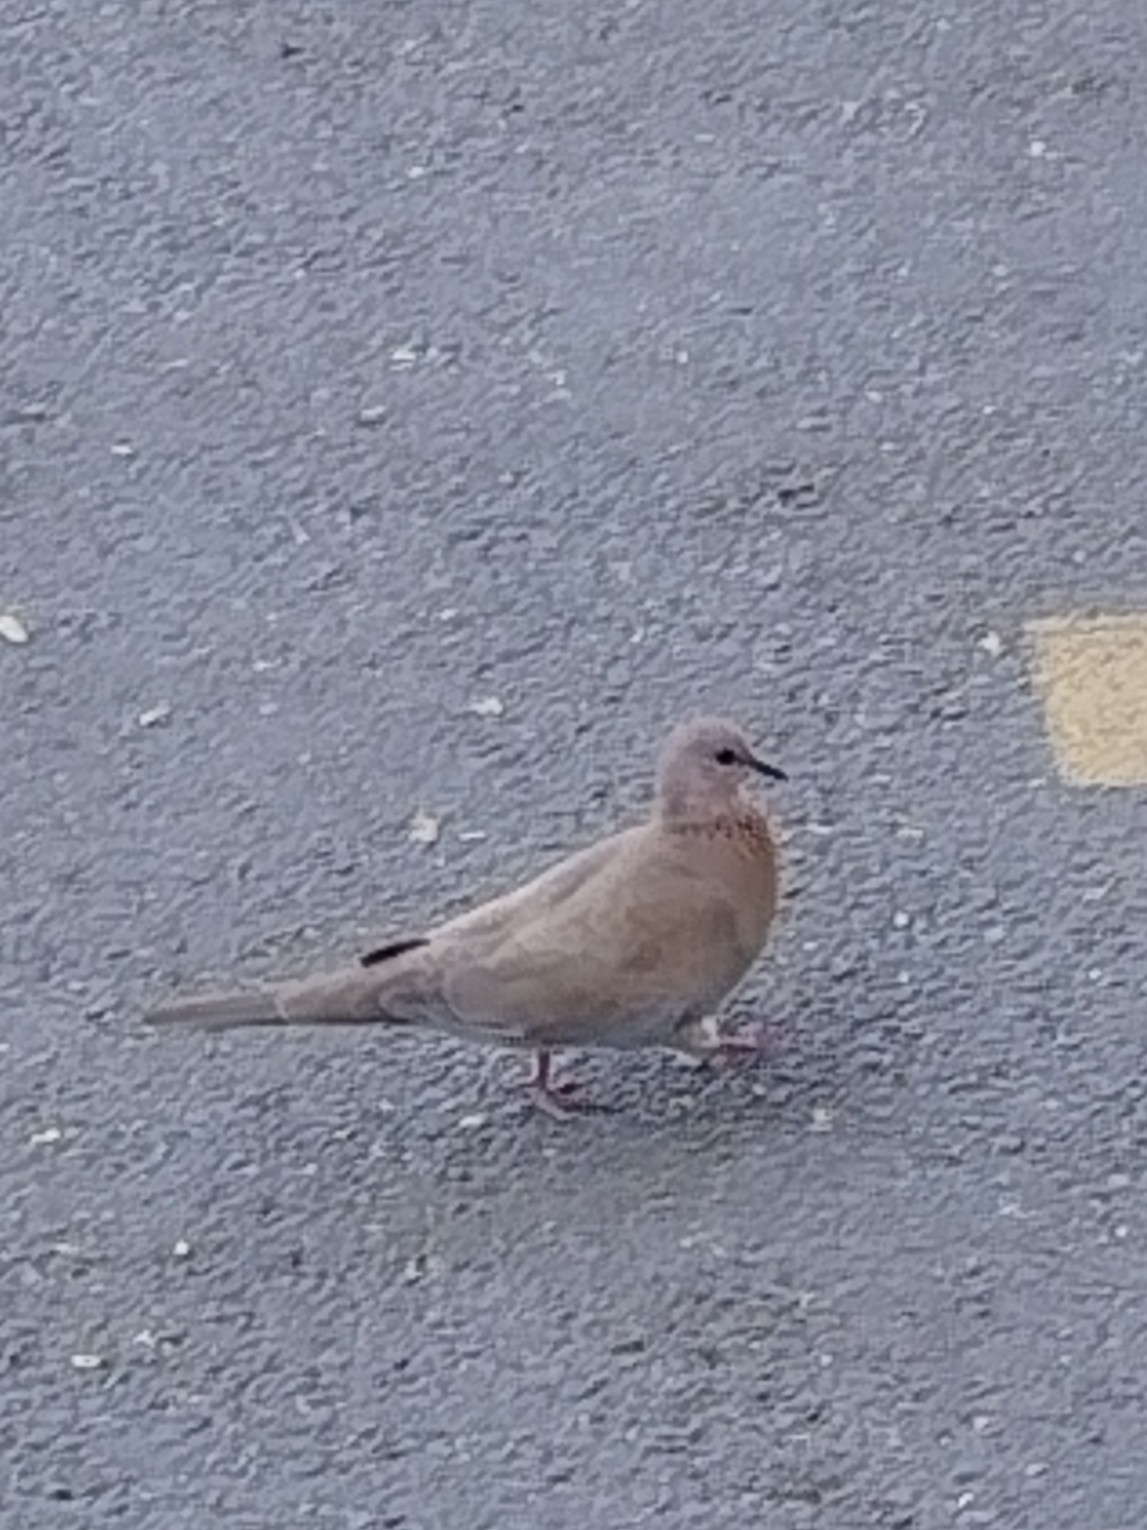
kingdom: Animalia
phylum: Chordata
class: Aves
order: Columbiformes
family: Columbidae
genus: Spilopelia
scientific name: Spilopelia senegalensis
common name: Laughing dove
